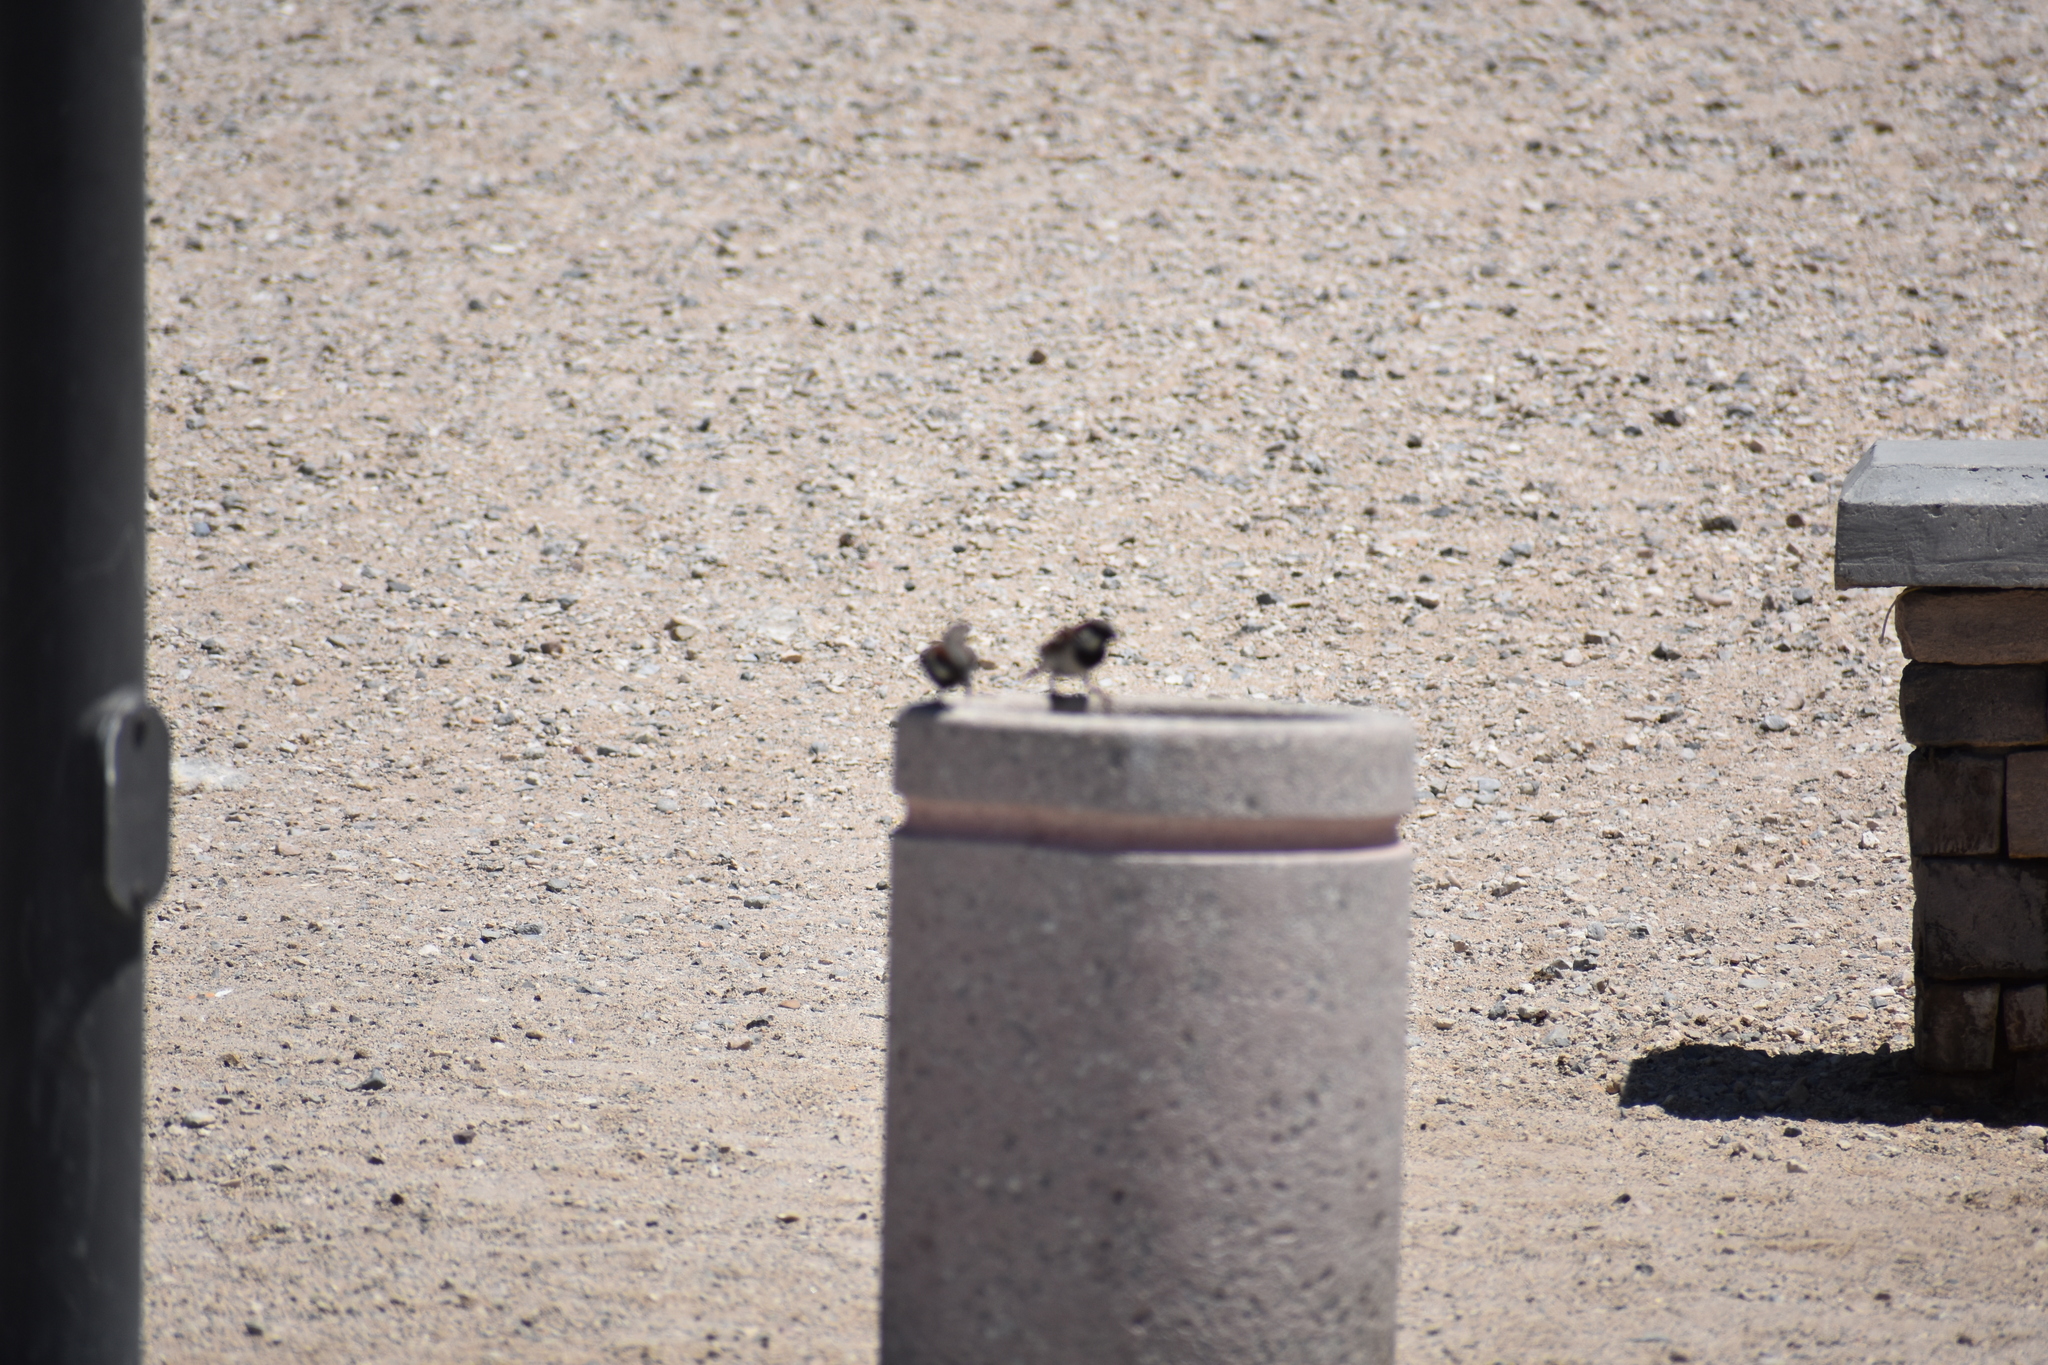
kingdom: Animalia
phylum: Chordata
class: Aves
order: Passeriformes
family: Passeridae
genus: Passer
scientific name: Passer domesticus
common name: House sparrow
